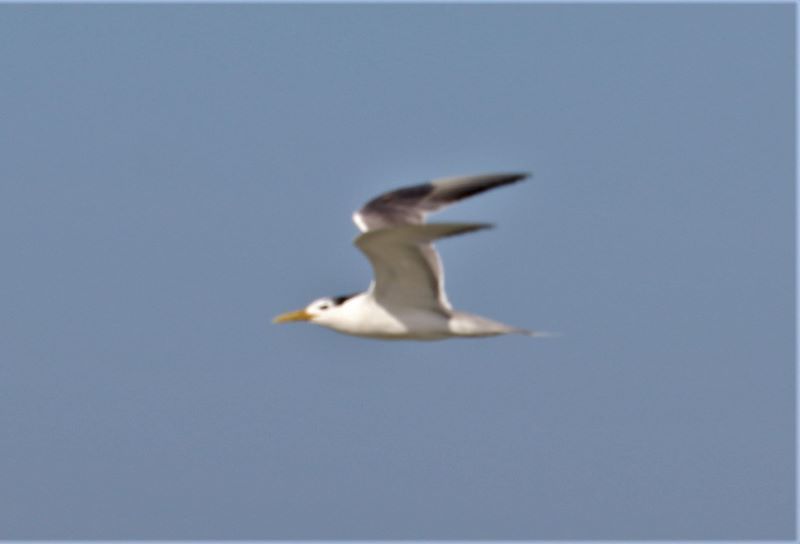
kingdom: Animalia
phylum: Chordata
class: Aves
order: Charadriiformes
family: Laridae
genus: Thalasseus
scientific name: Thalasseus bergii
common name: Greater crested tern
